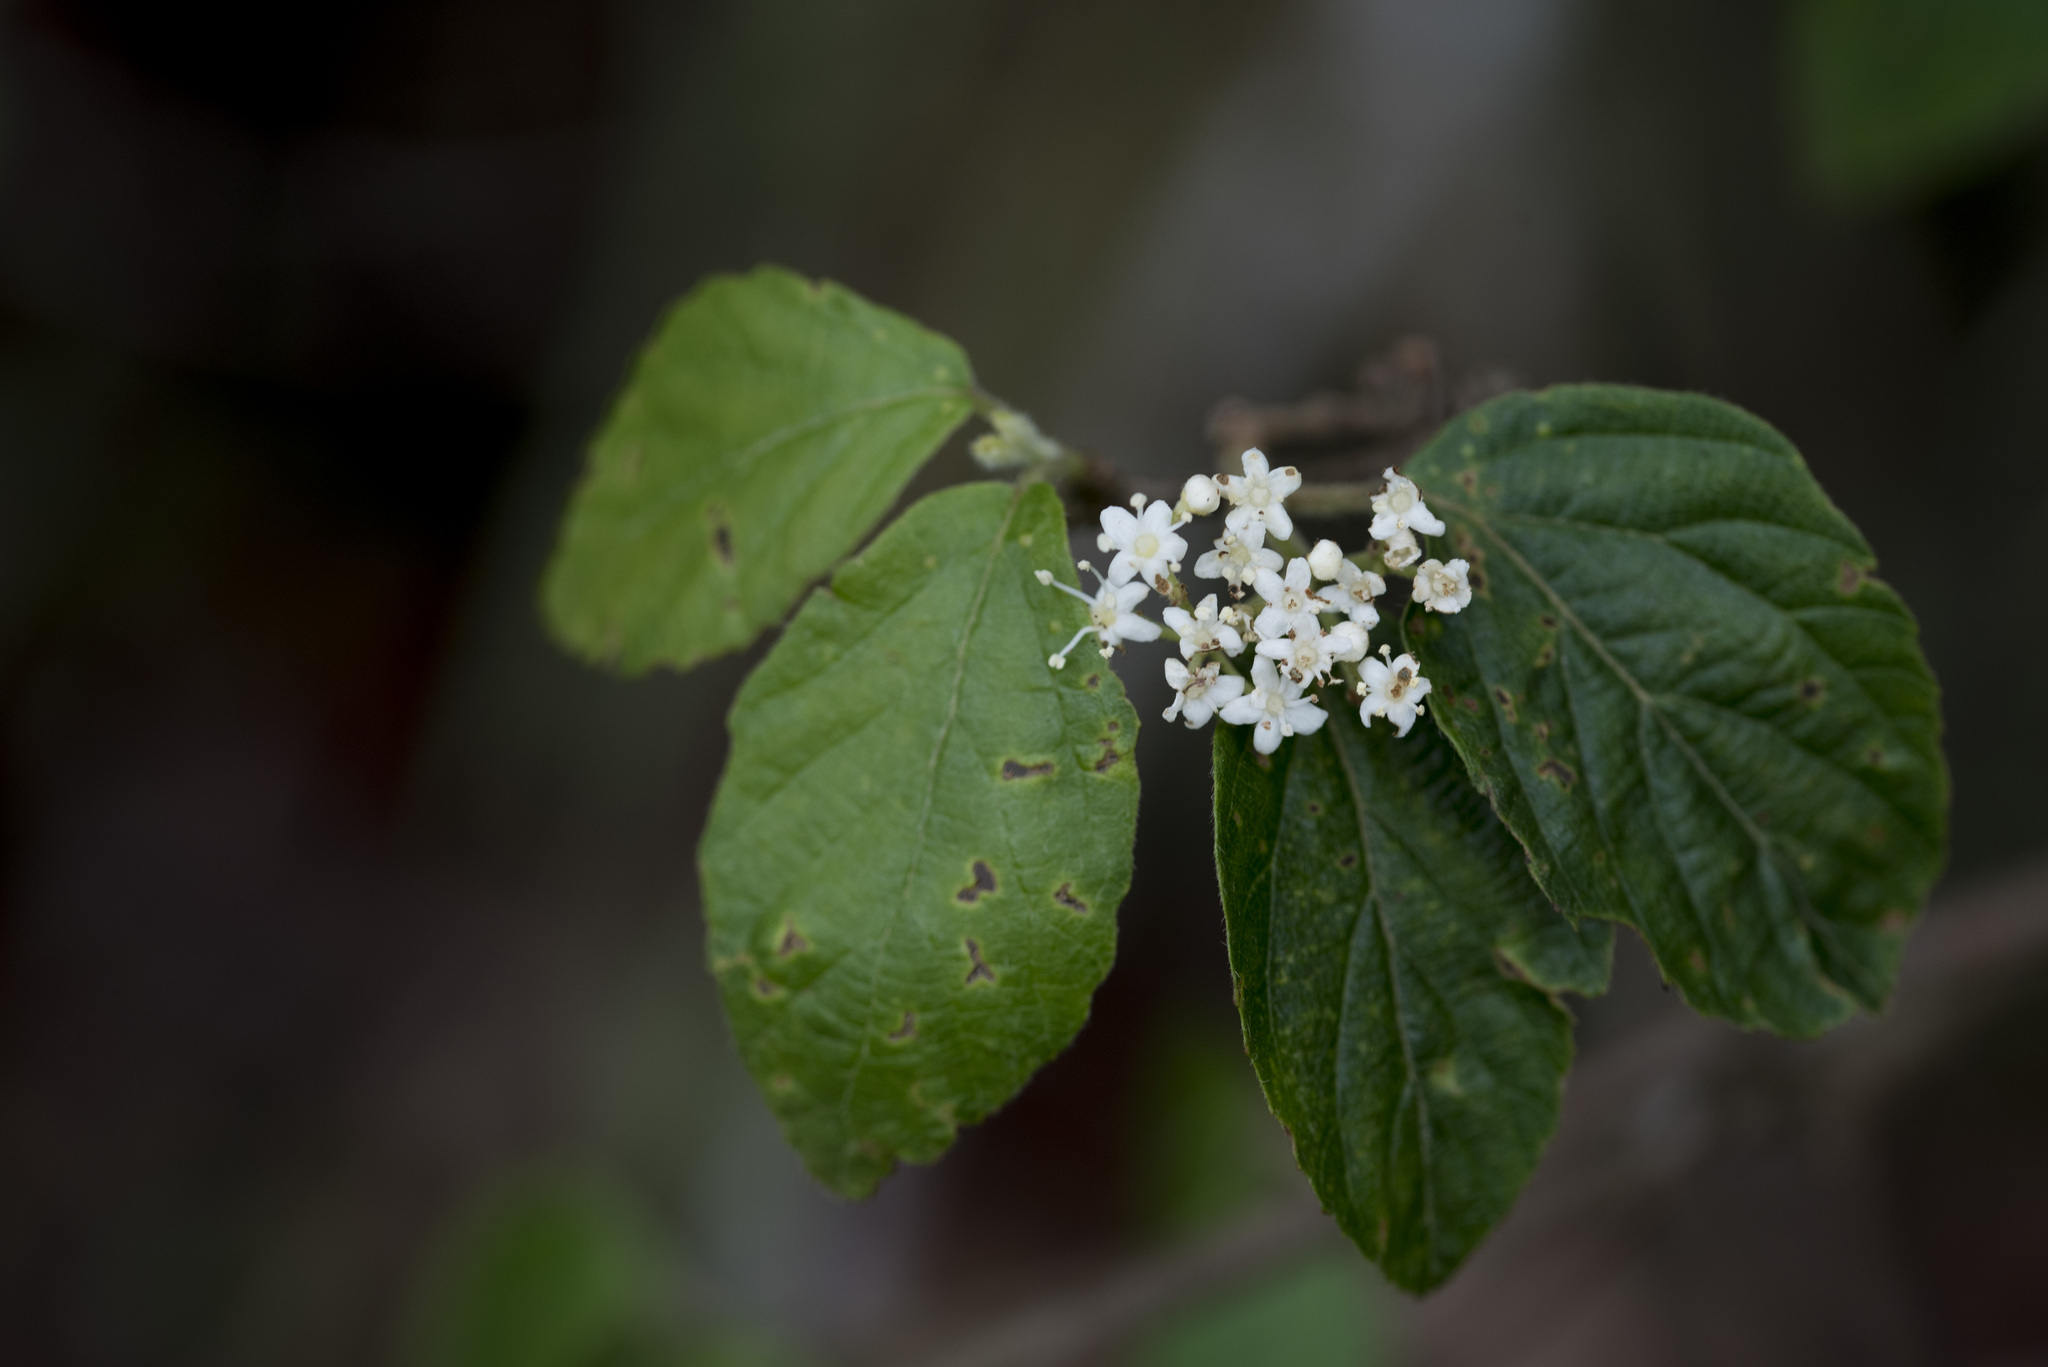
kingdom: Plantae
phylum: Tracheophyta
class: Magnoliopsida
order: Dipsacales
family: Viburnaceae
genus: Viburnum
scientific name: Viburnum luzonicum
